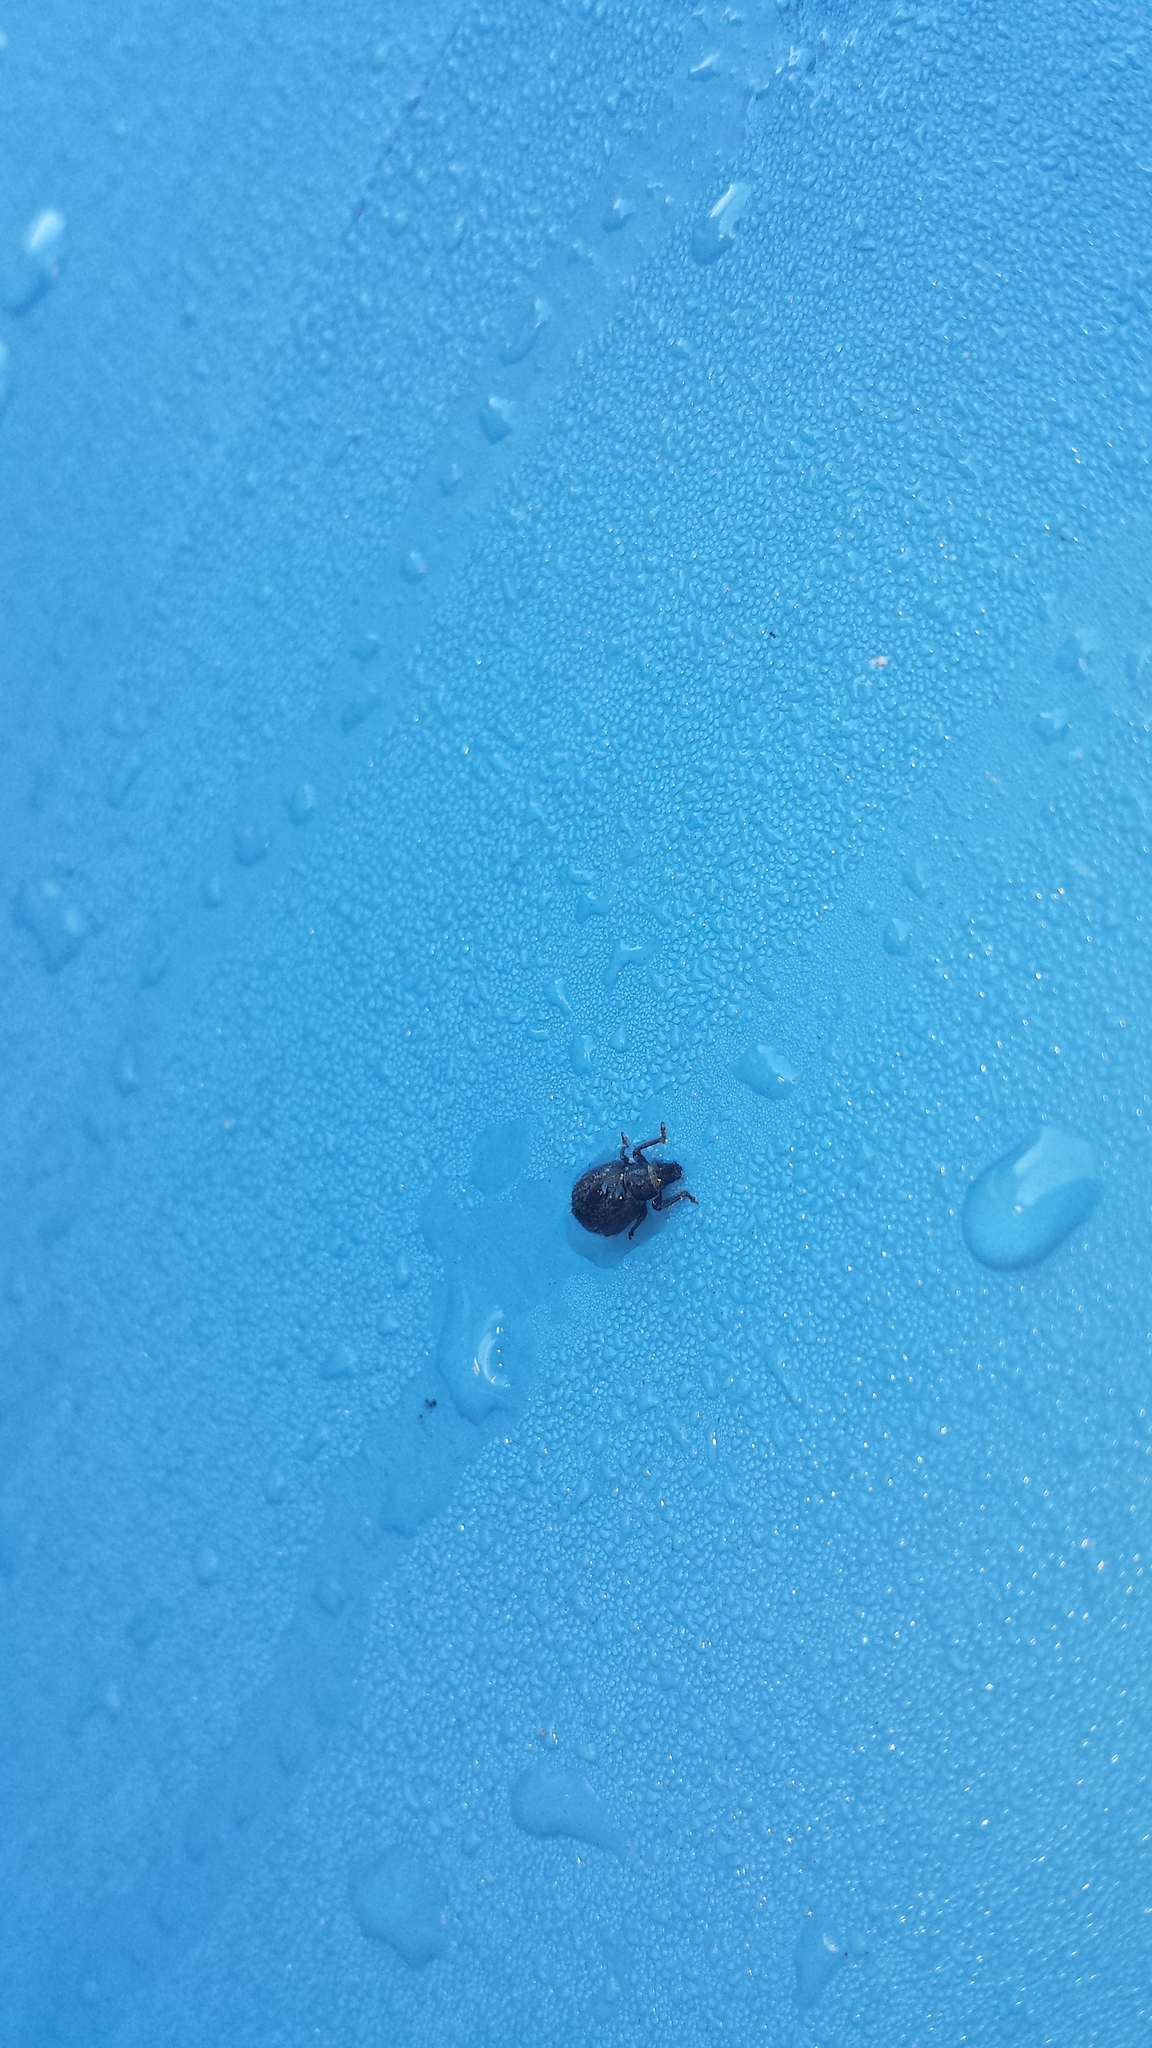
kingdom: Animalia
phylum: Arthropoda
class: Insecta
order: Coleoptera
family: Curculionidae
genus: Strophosoma
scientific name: Strophosoma melanogrammum
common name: Weevil
